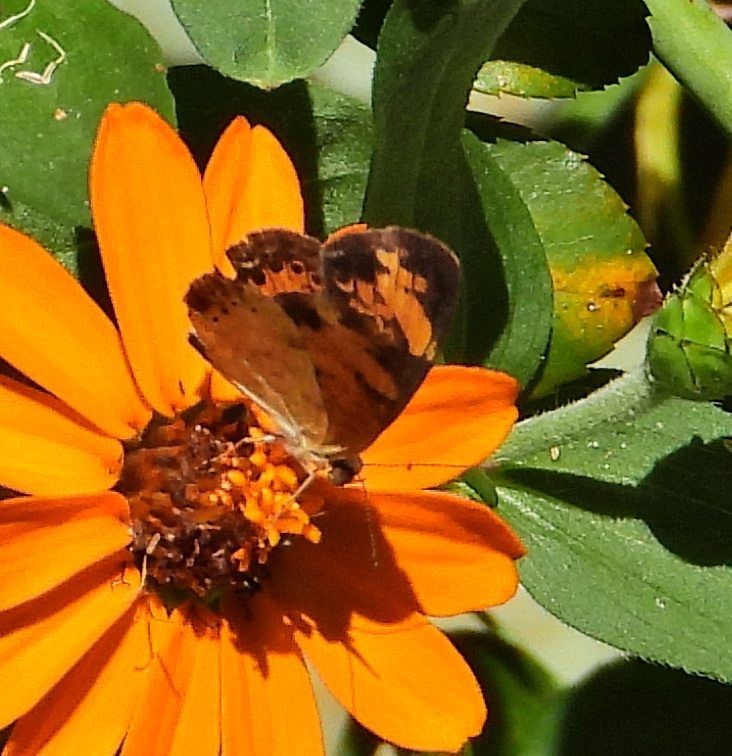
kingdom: Animalia
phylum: Arthropoda
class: Insecta
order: Lepidoptera
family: Nymphalidae
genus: Phyciodes
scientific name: Phyciodes tharos
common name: Pearl crescent
